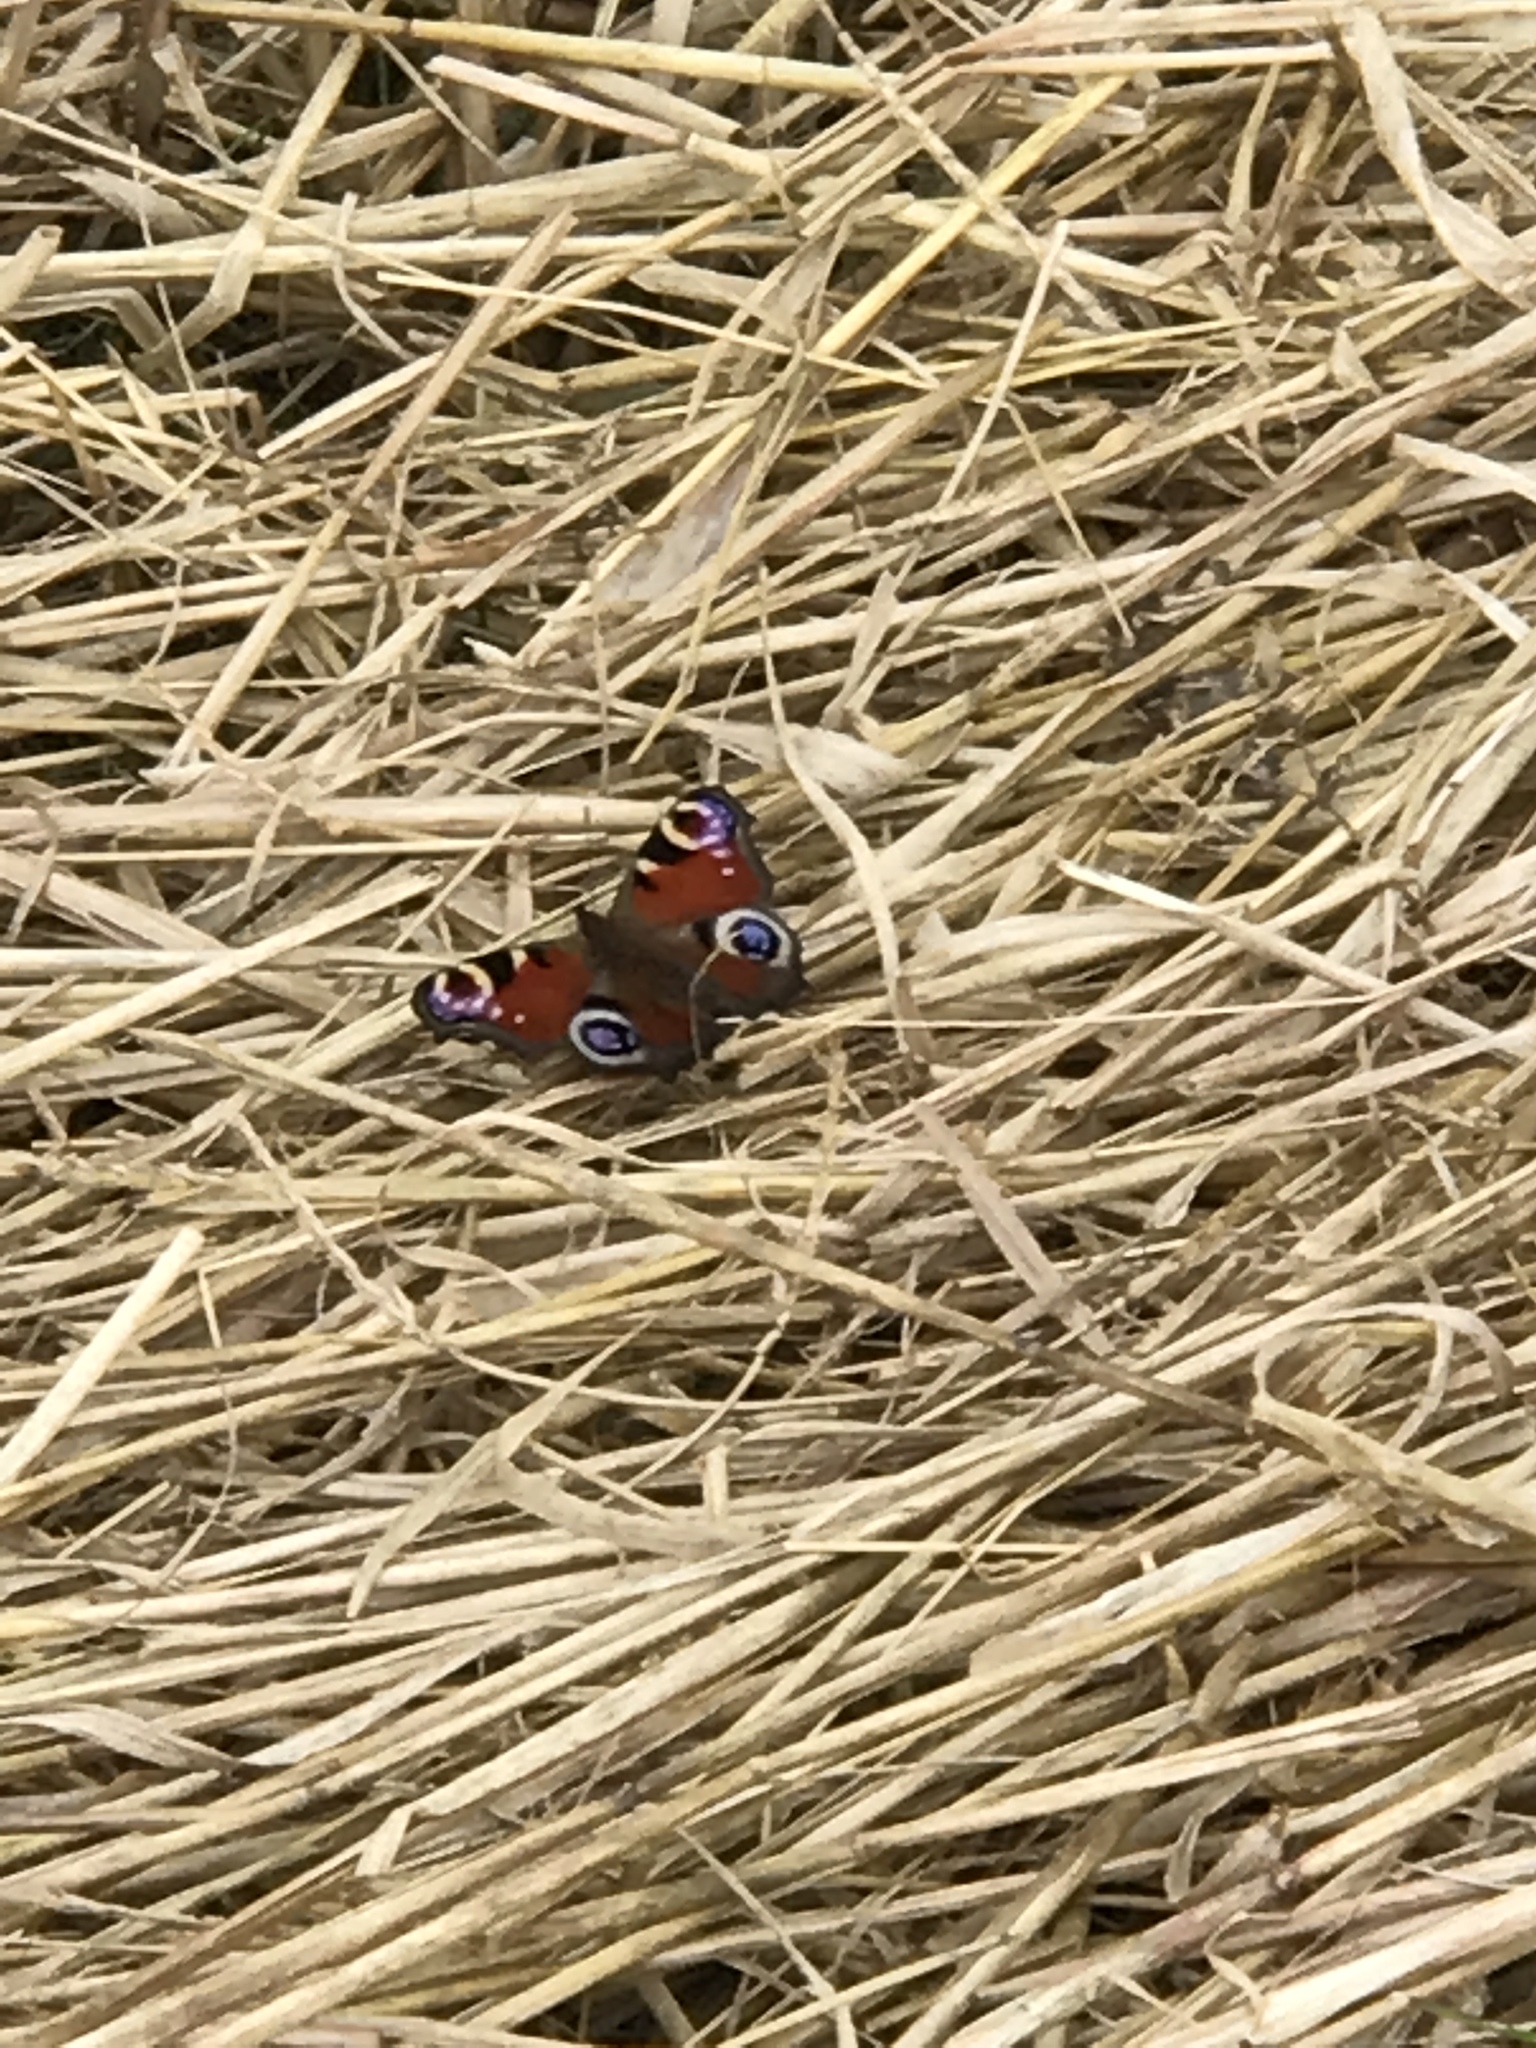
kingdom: Animalia
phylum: Arthropoda
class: Insecta
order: Lepidoptera
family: Nymphalidae
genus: Aglais
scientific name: Aglais io
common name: Peacock
